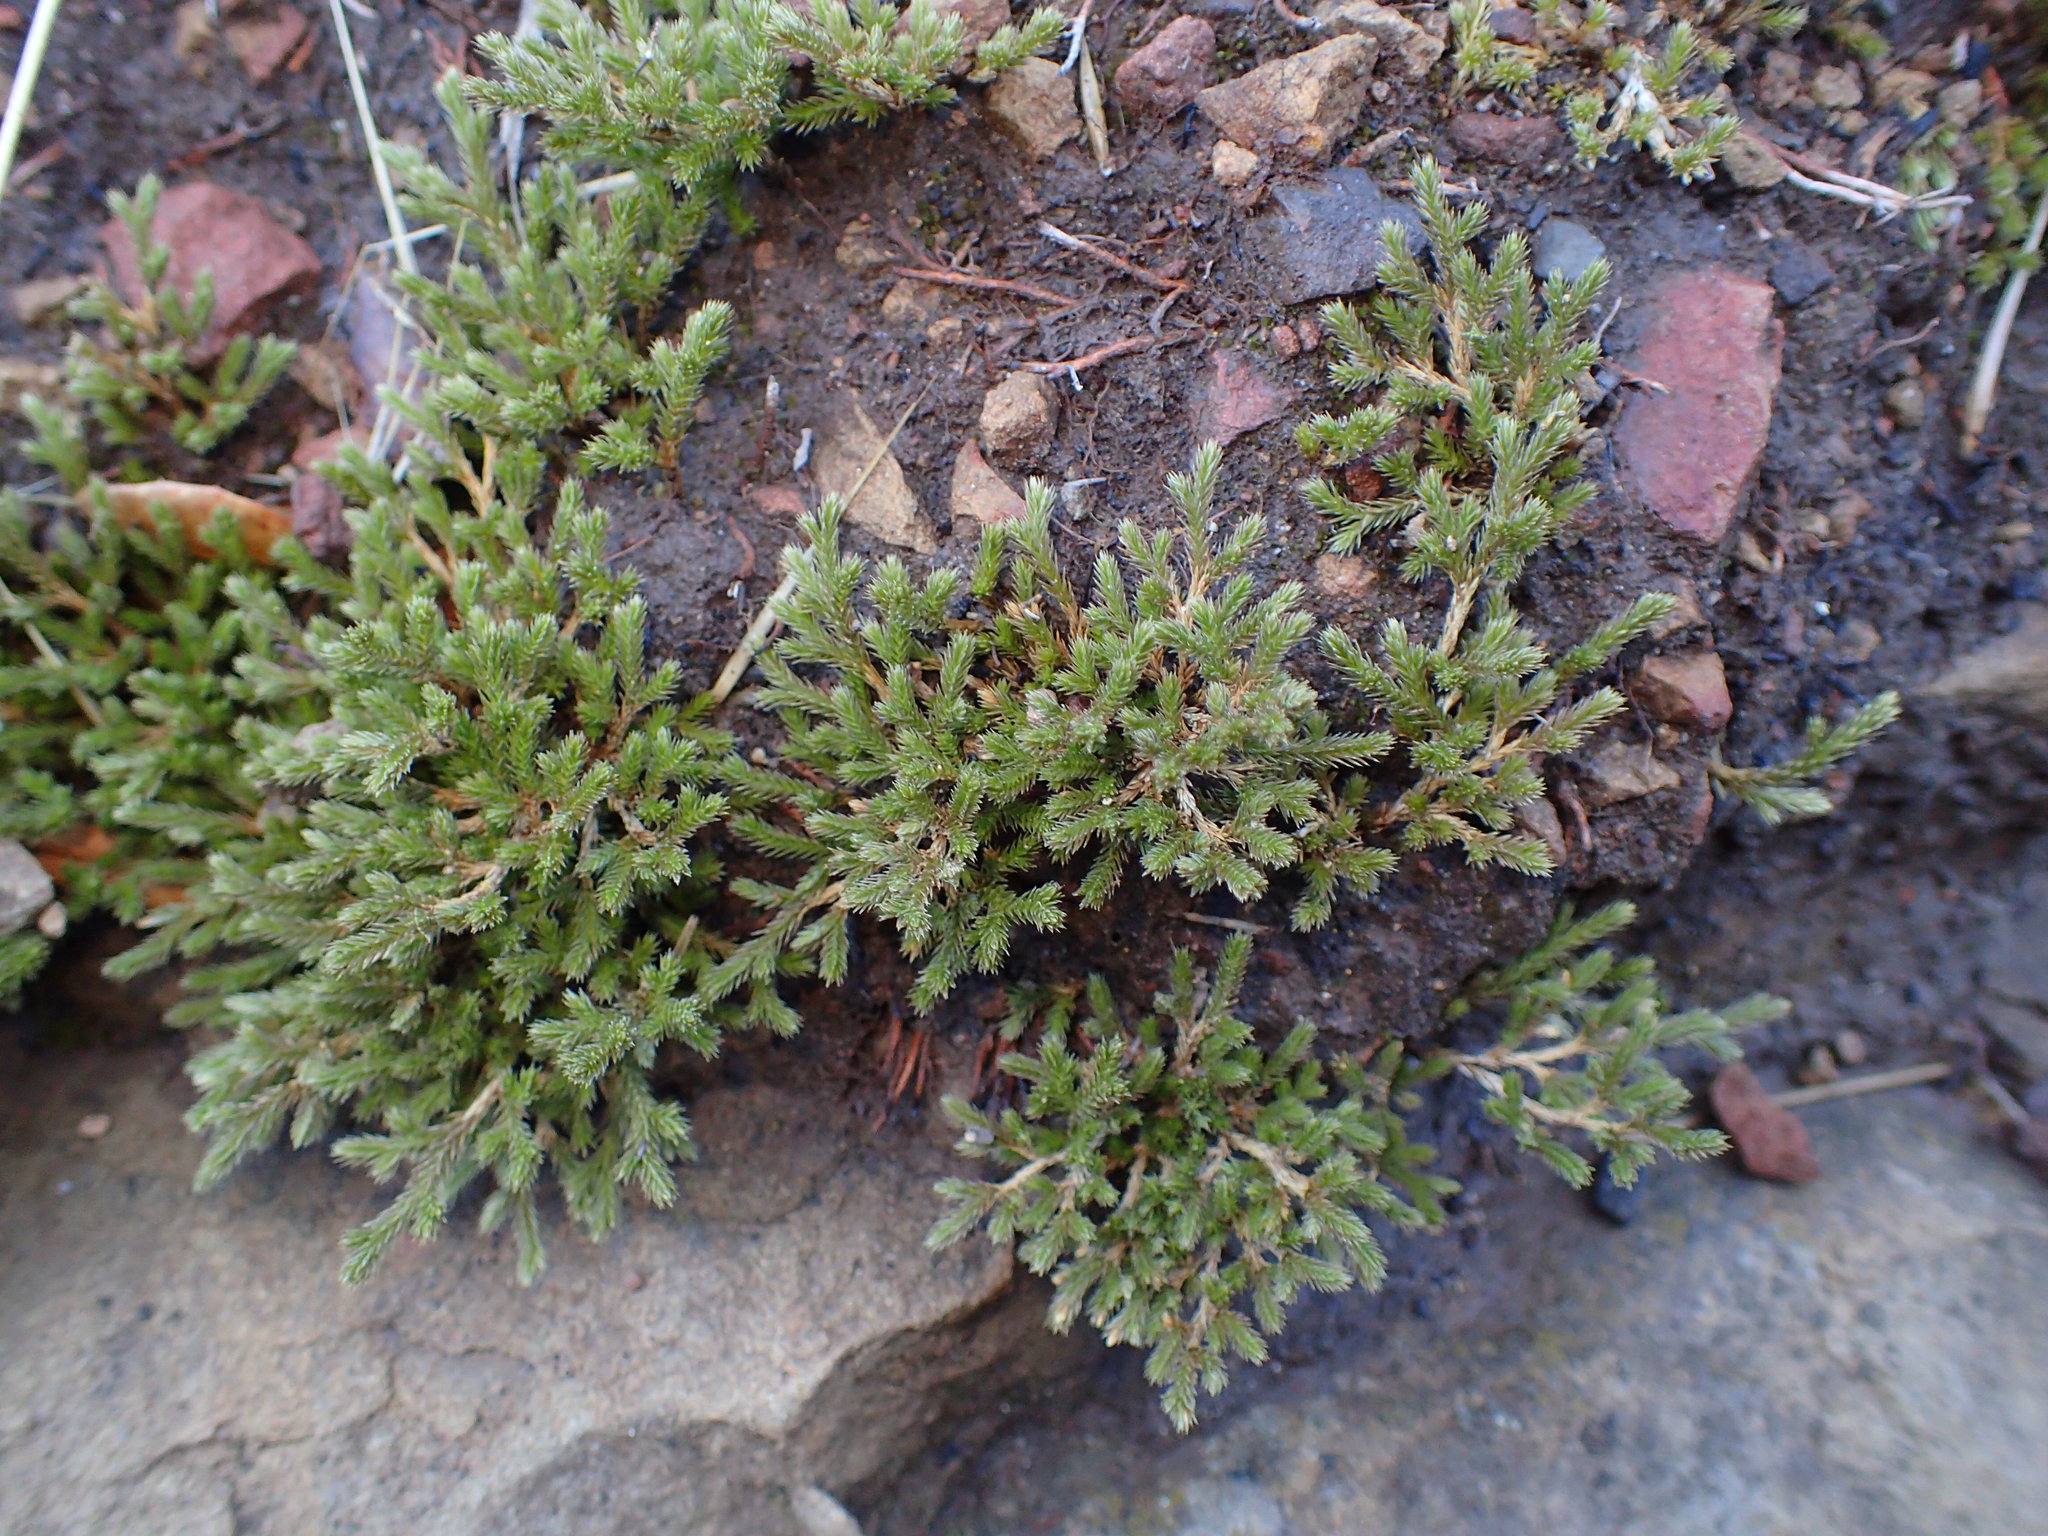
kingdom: Plantae
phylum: Tracheophyta
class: Lycopodiopsida
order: Selaginellales
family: Selaginellaceae
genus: Selaginella
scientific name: Selaginella bigelovii
